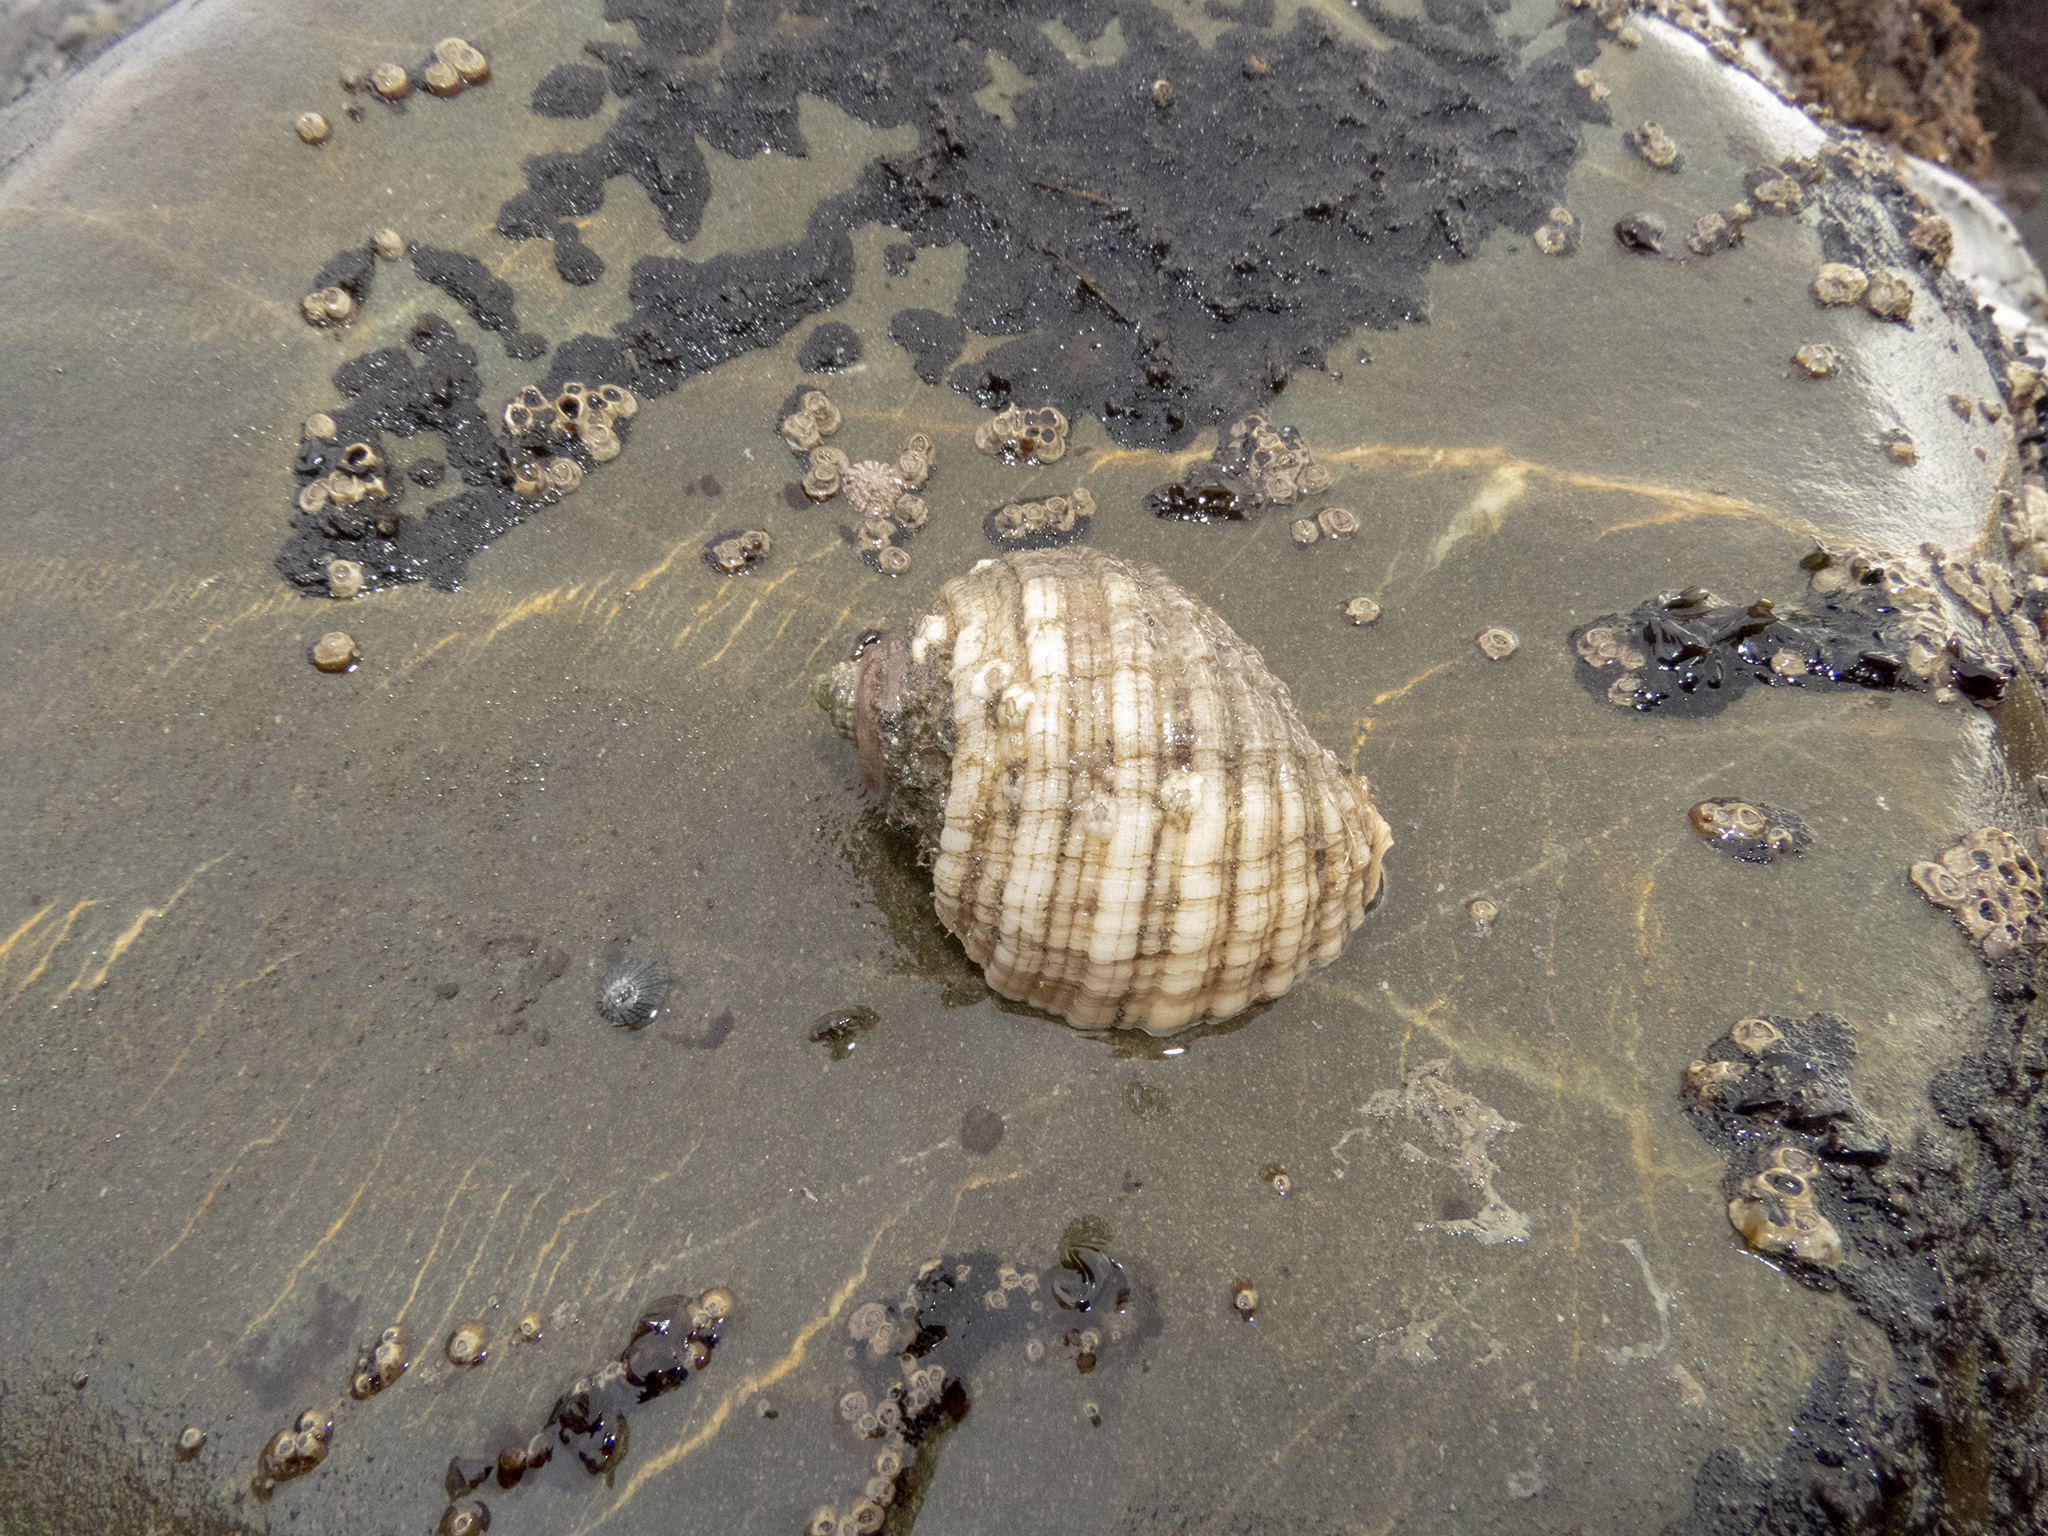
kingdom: Animalia
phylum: Mollusca
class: Gastropoda
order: Neogastropoda
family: Muricidae
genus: Dicathais
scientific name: Dicathais orbita
